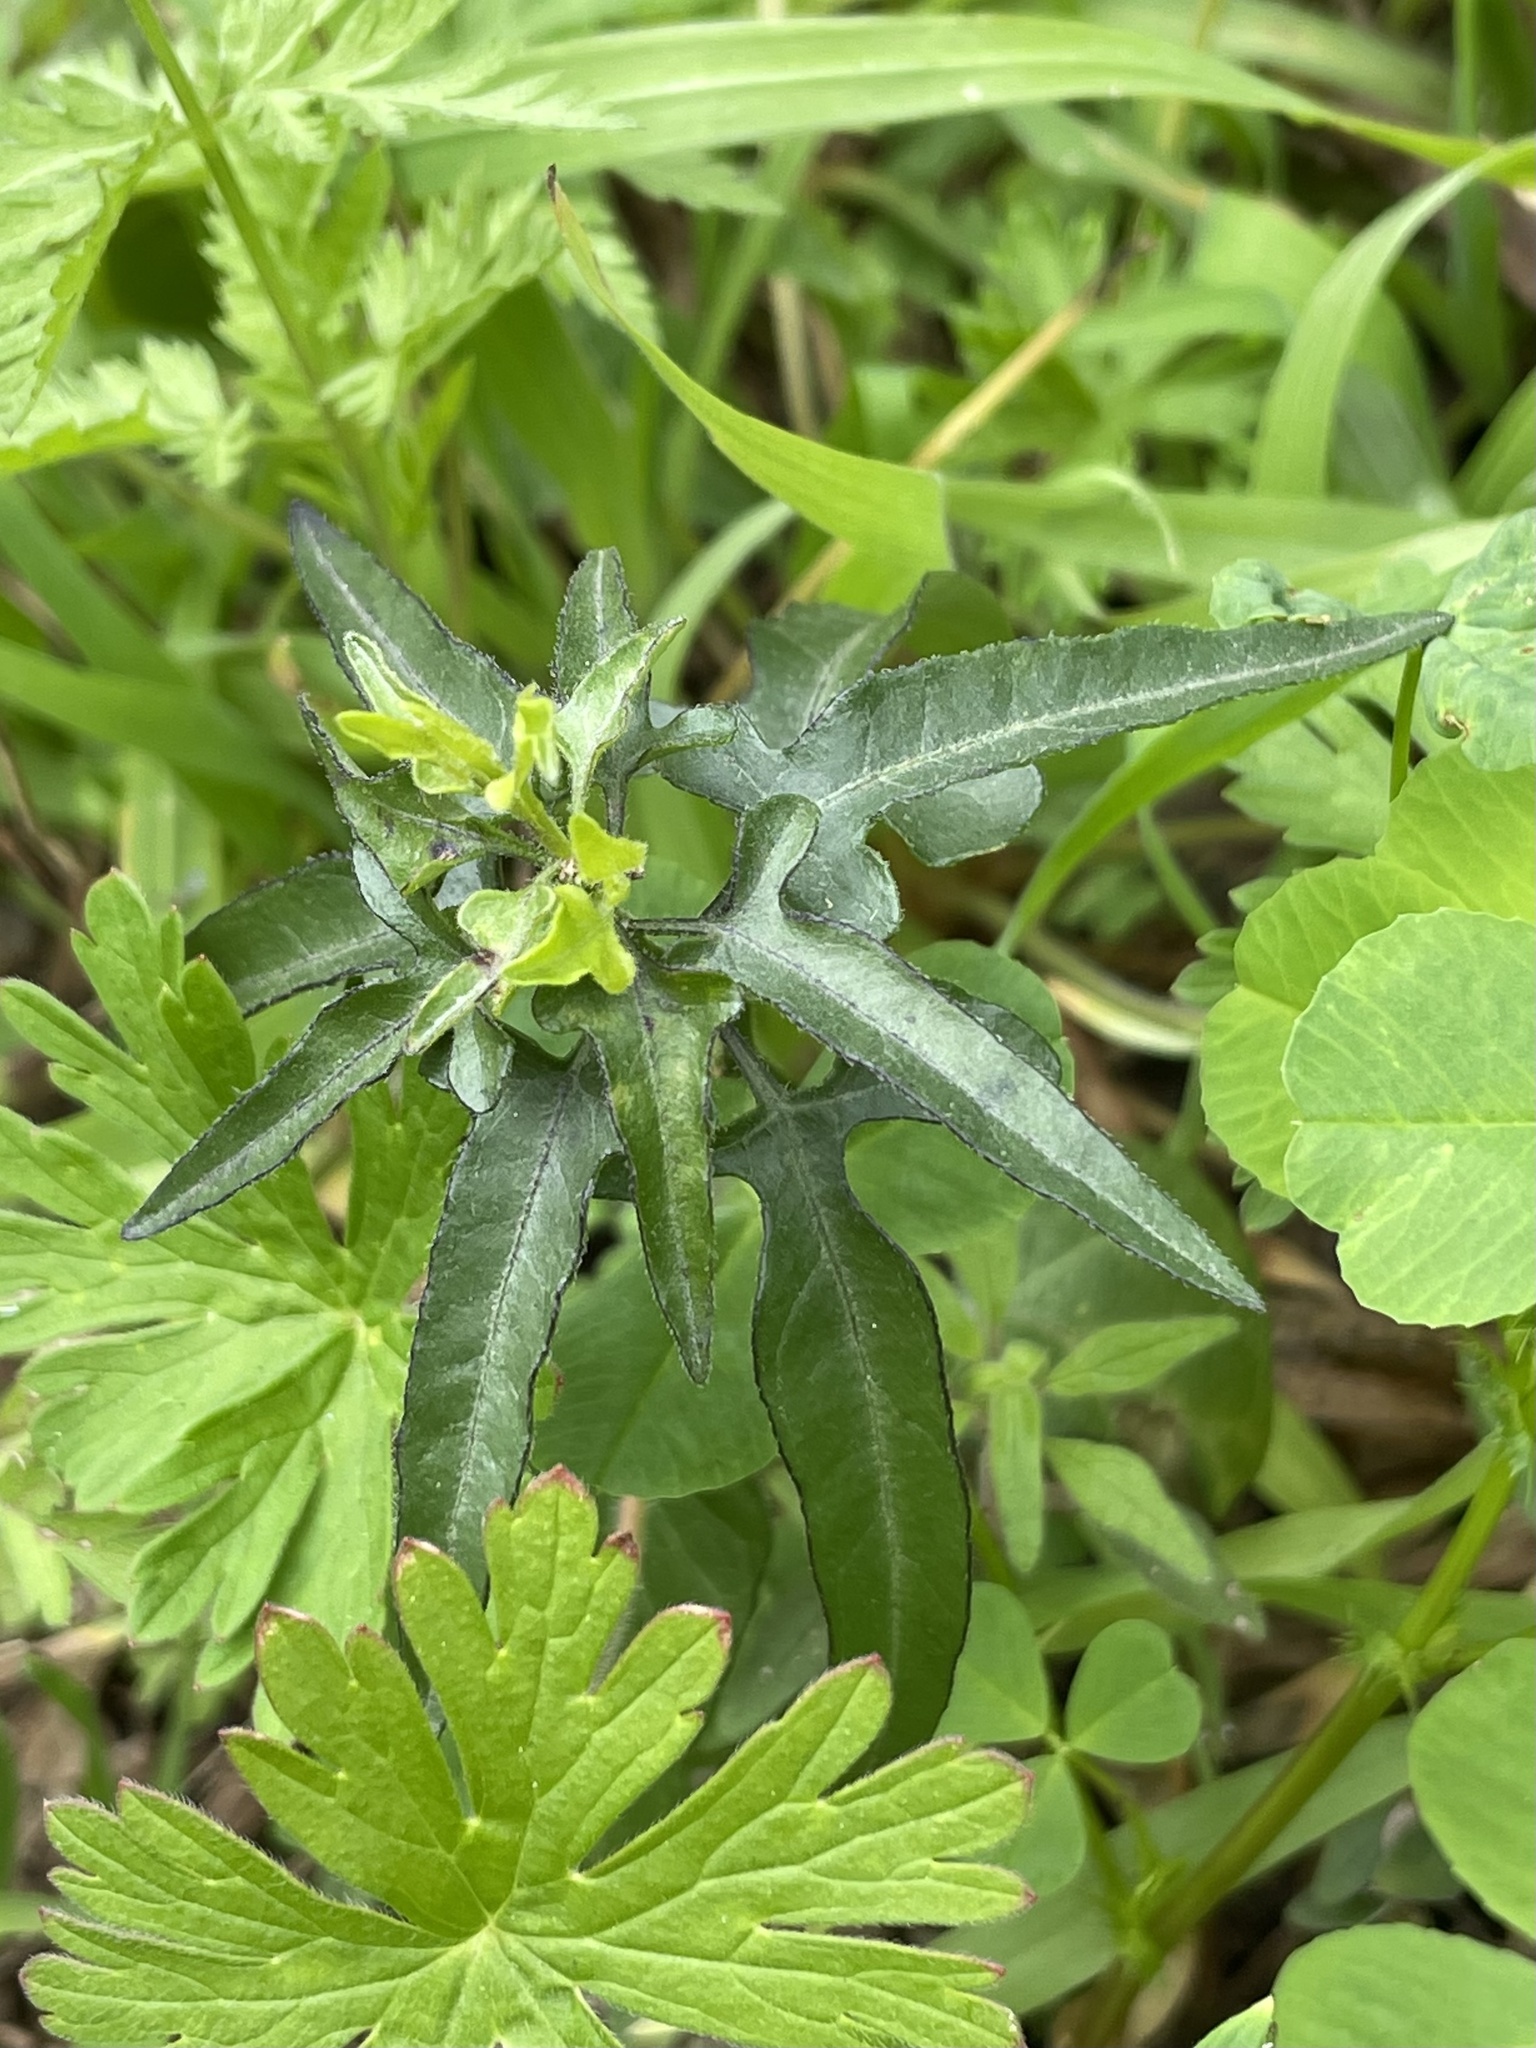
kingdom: Plantae
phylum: Tracheophyta
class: Magnoliopsida
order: Solanales
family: Solanaceae
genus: Solanum
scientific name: Solanum triquetrum
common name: Texas nightshade
